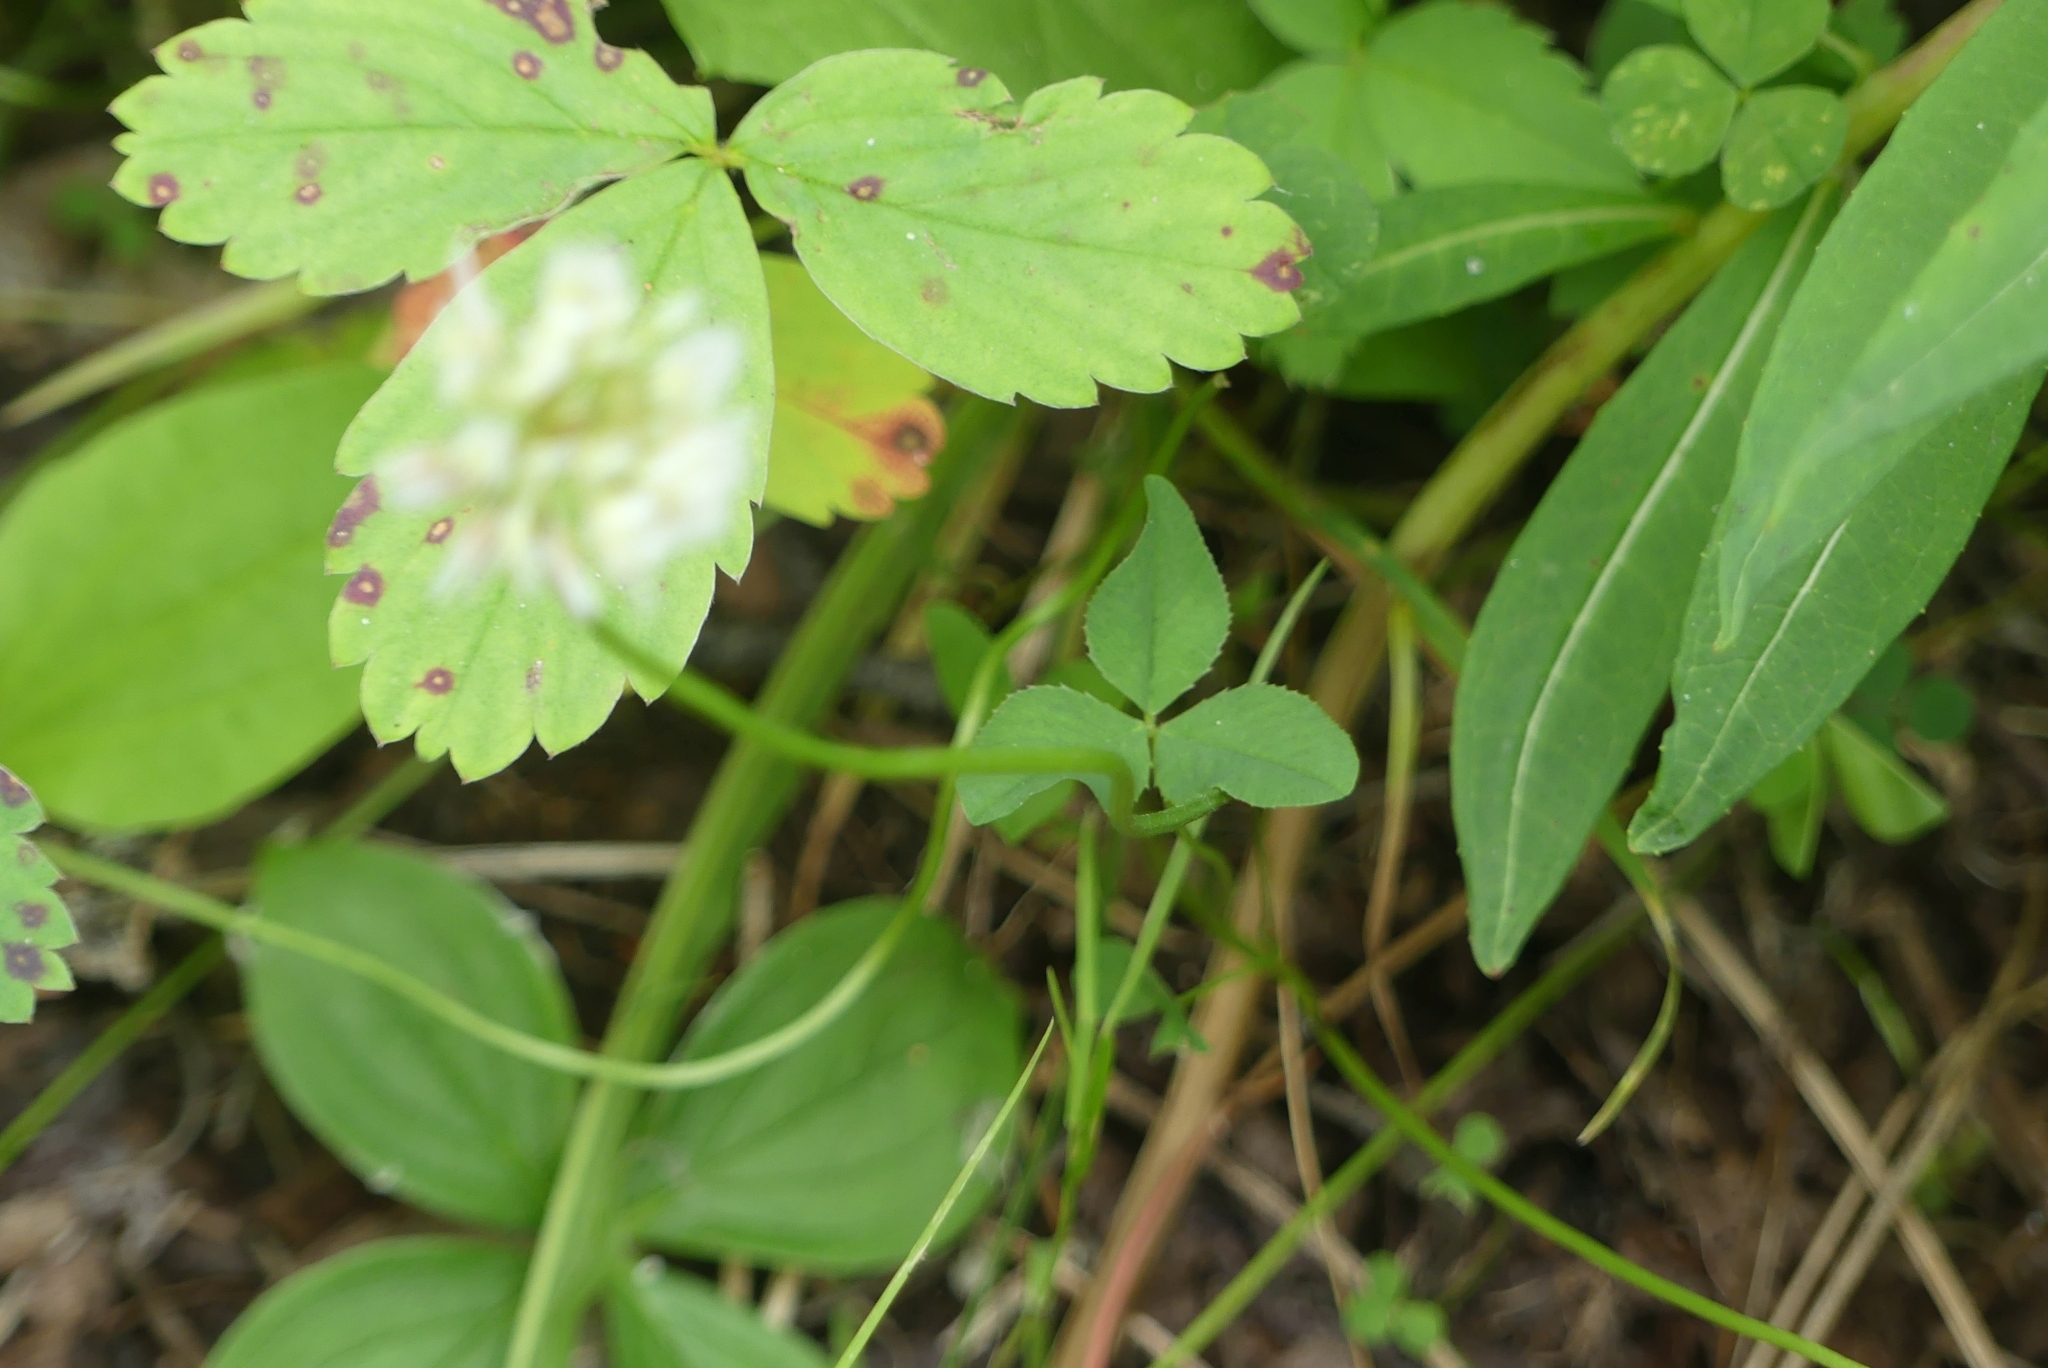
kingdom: Plantae
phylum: Tracheophyta
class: Magnoliopsida
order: Fabales
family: Fabaceae
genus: Trifolium
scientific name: Trifolium repens
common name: White clover
